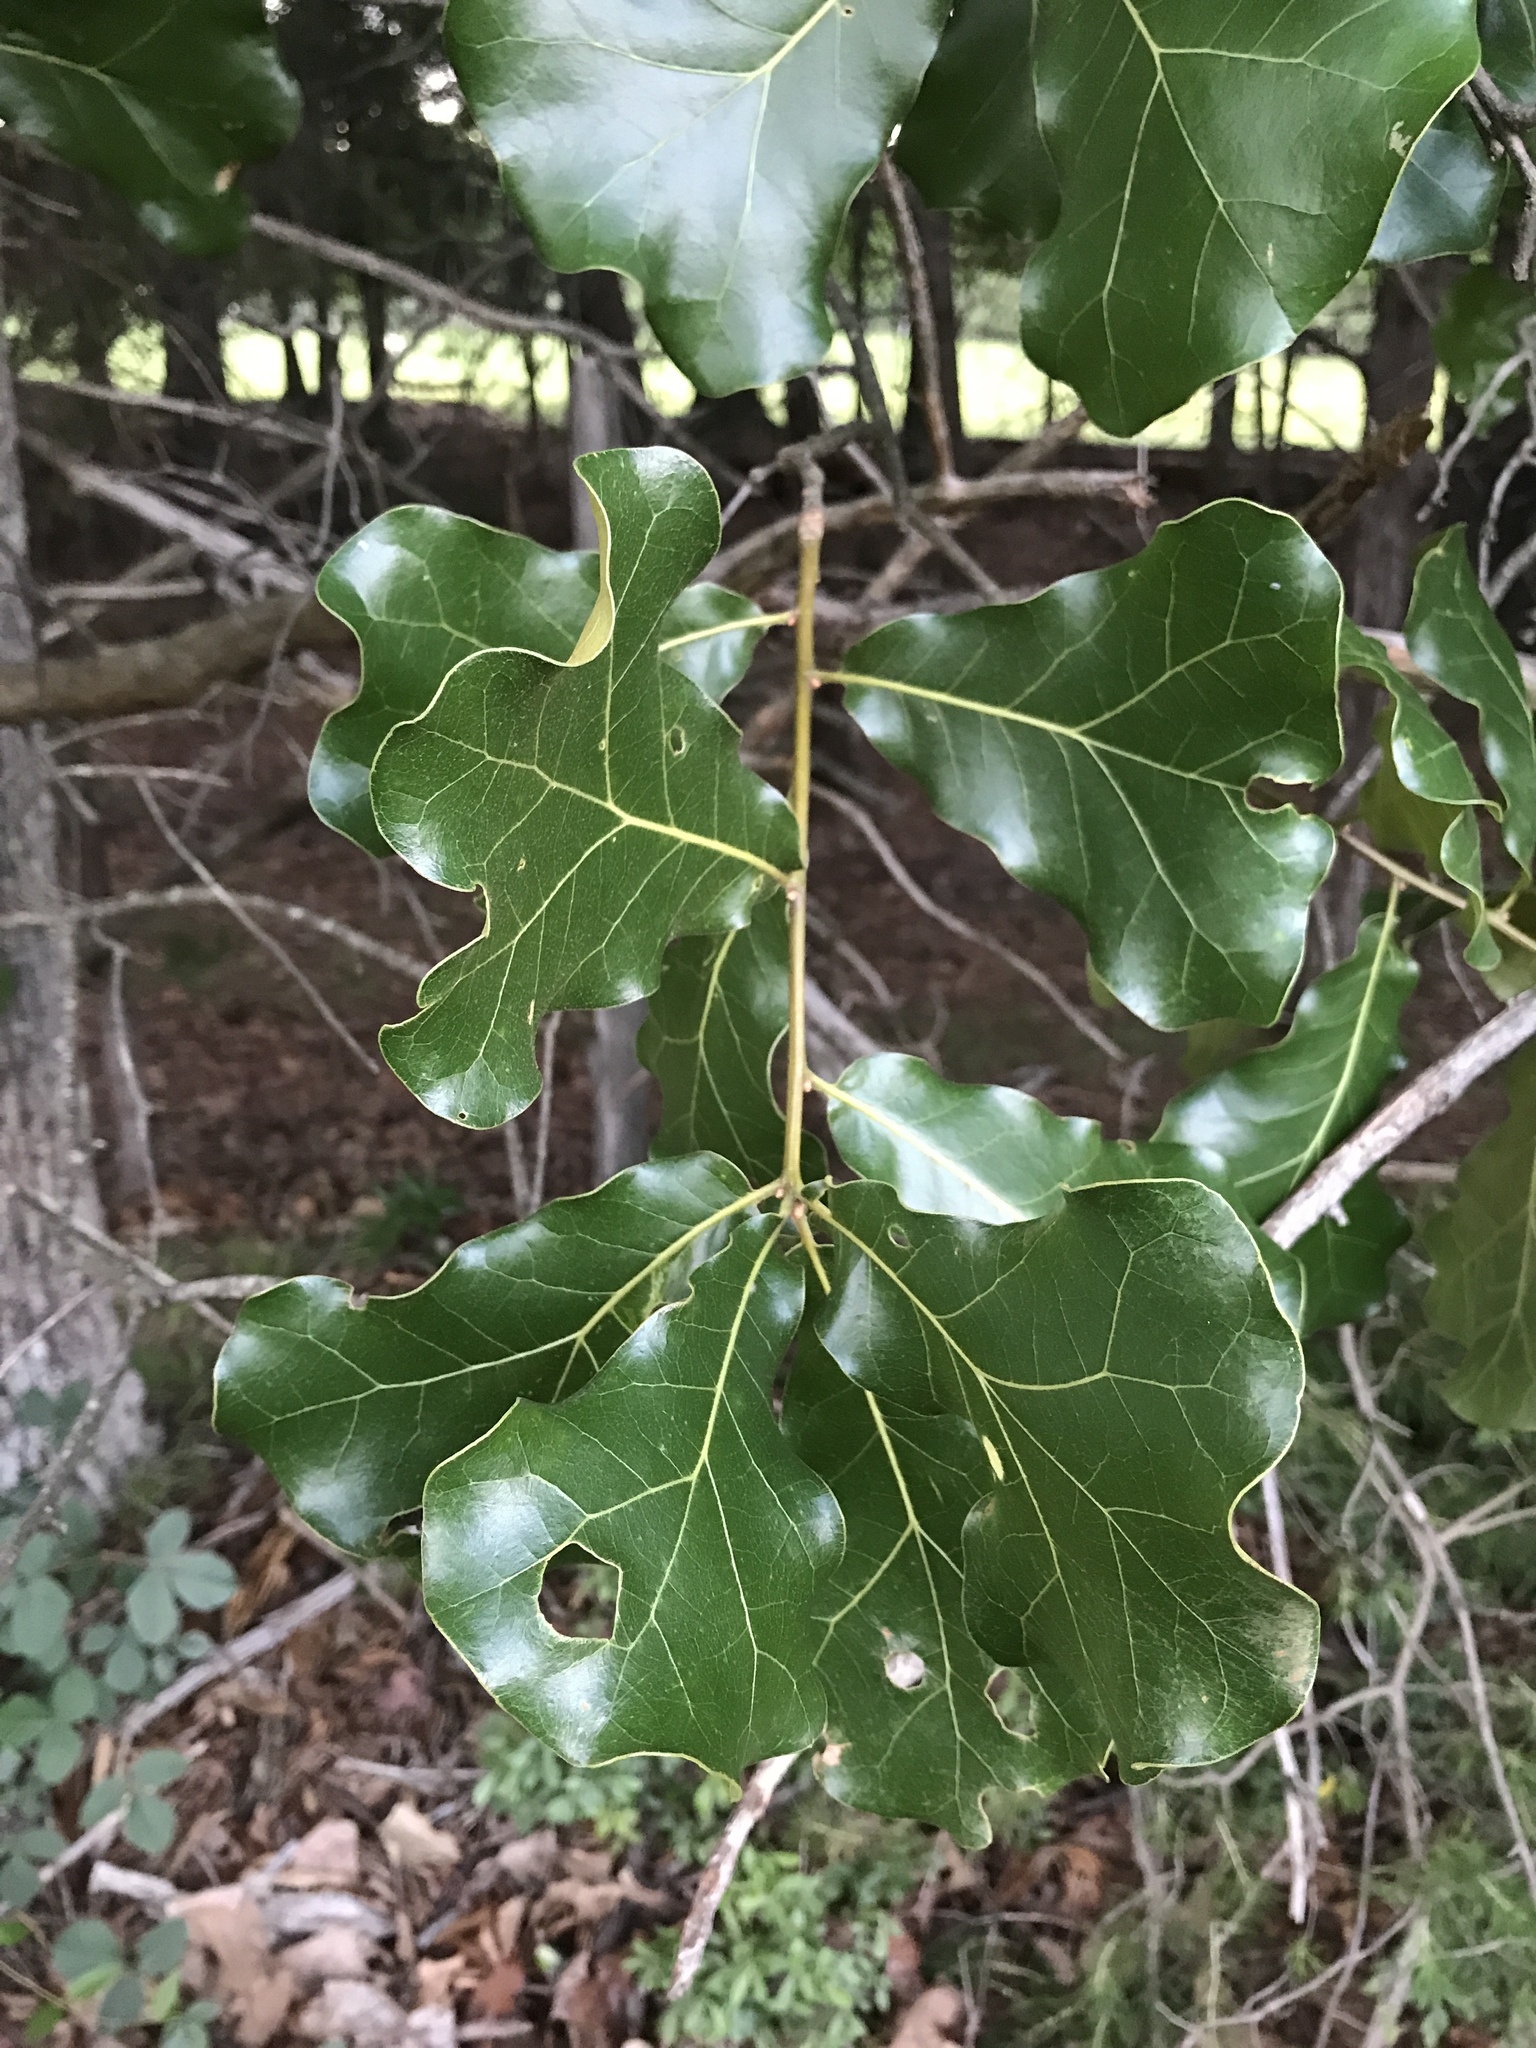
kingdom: Plantae
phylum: Tracheophyta
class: Magnoliopsida
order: Fagales
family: Fagaceae
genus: Quercus
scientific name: Quercus marilandica
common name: Blackjack oak
